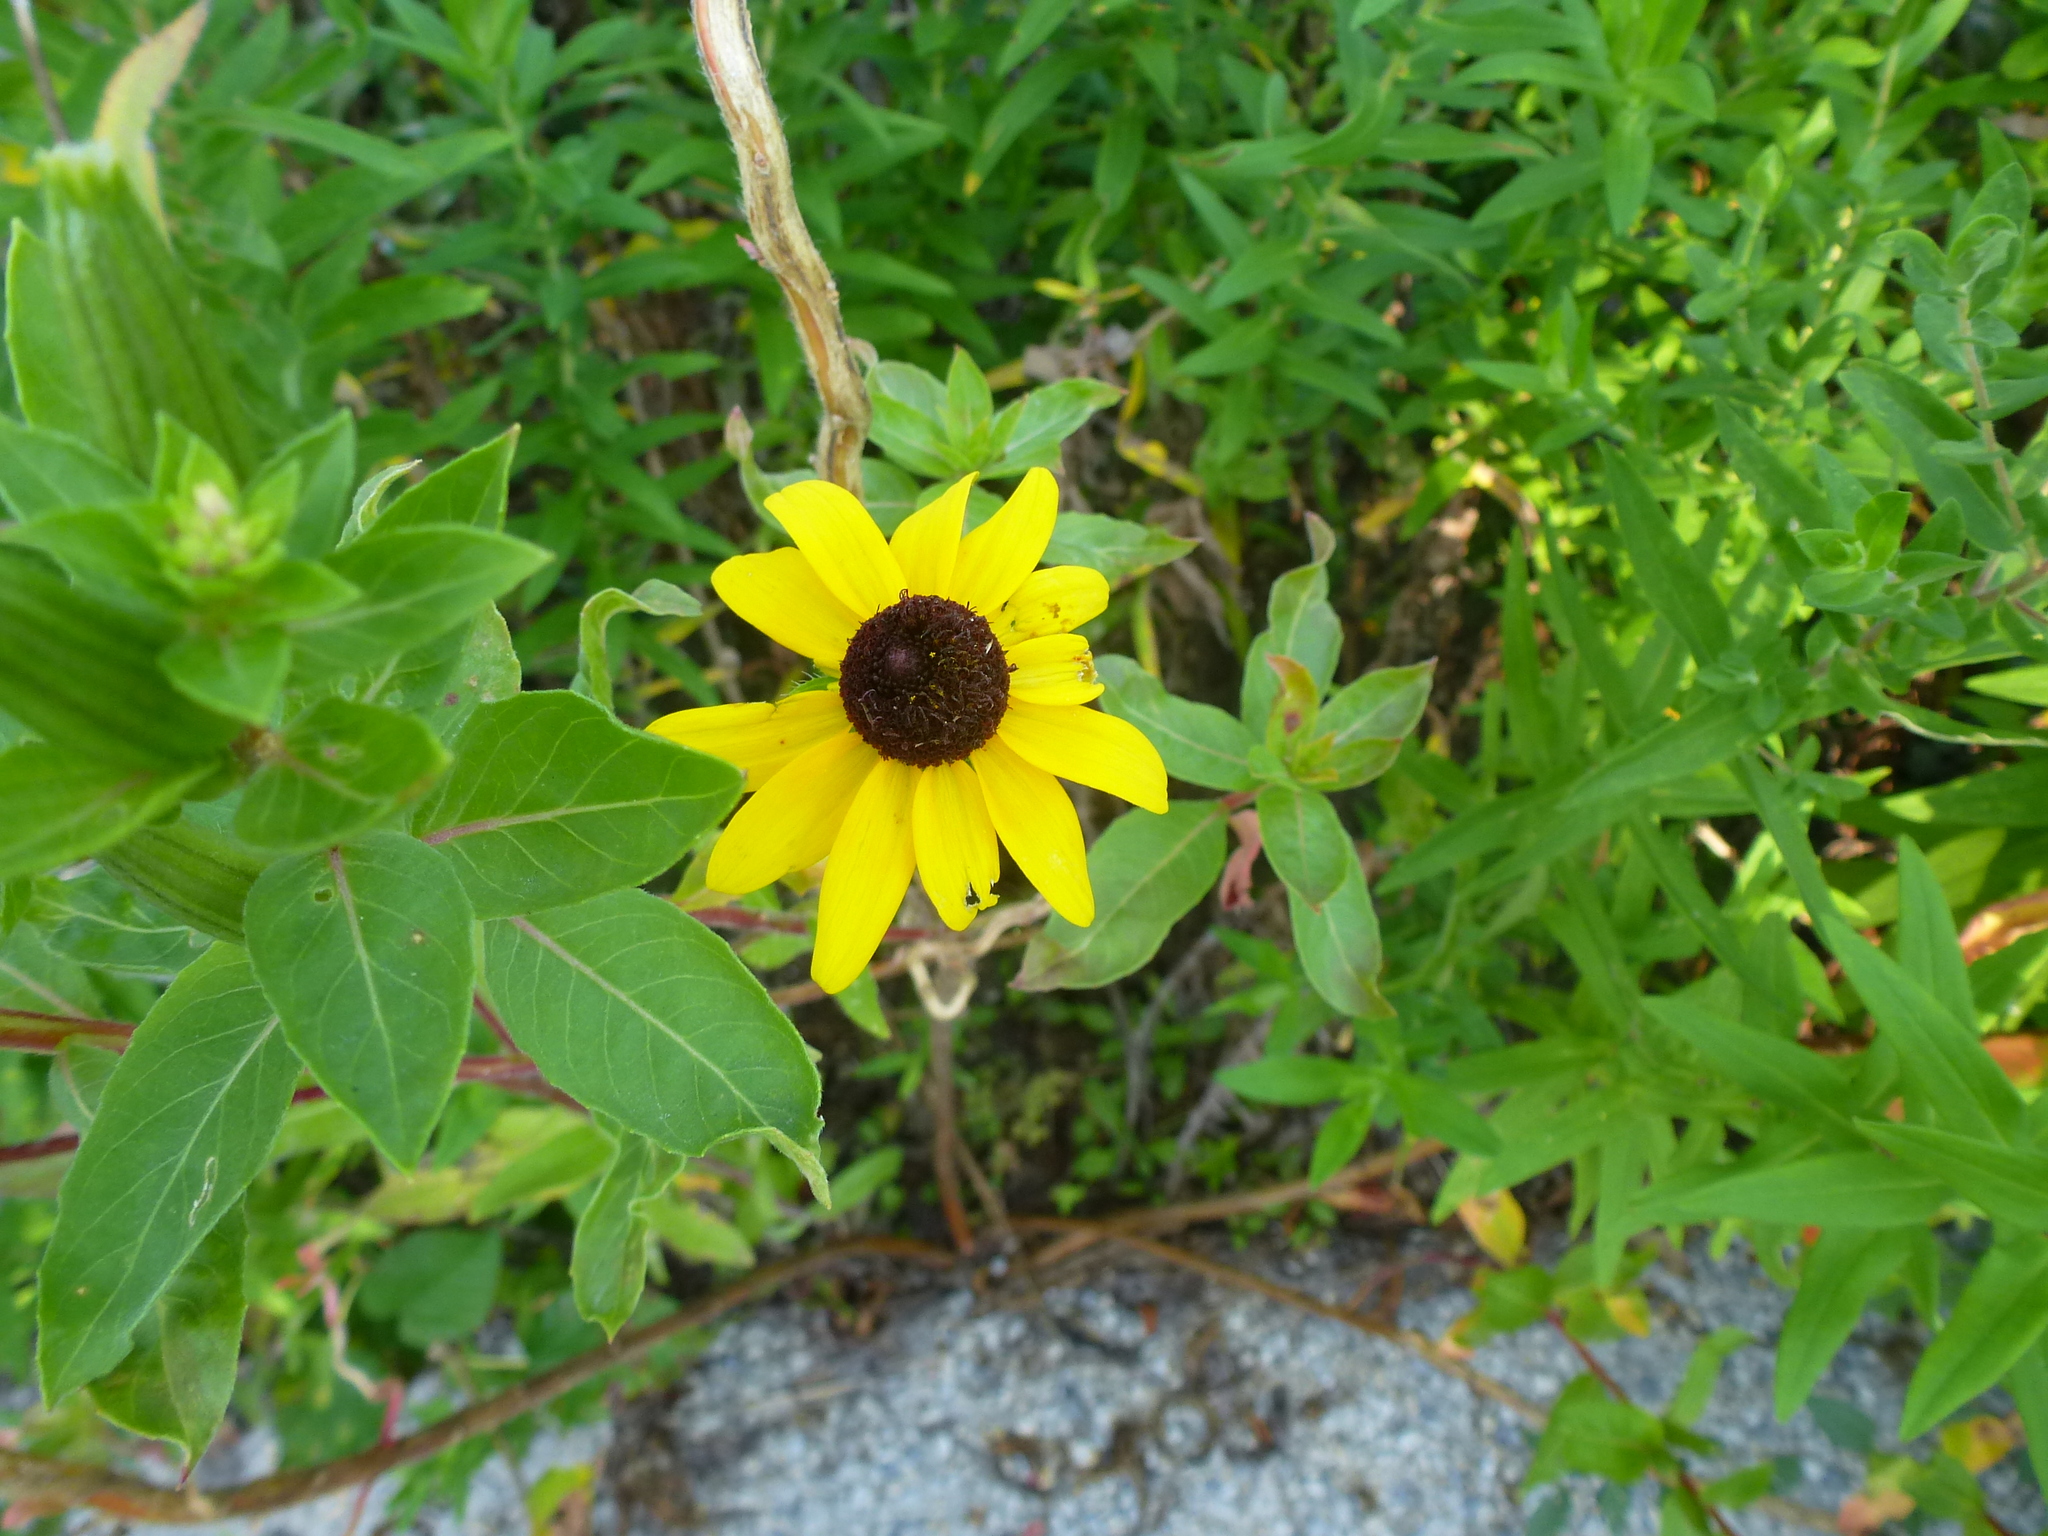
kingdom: Plantae
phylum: Tracheophyta
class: Magnoliopsida
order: Asterales
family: Asteraceae
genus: Rudbeckia
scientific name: Rudbeckia hirta
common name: Black-eyed-susan
